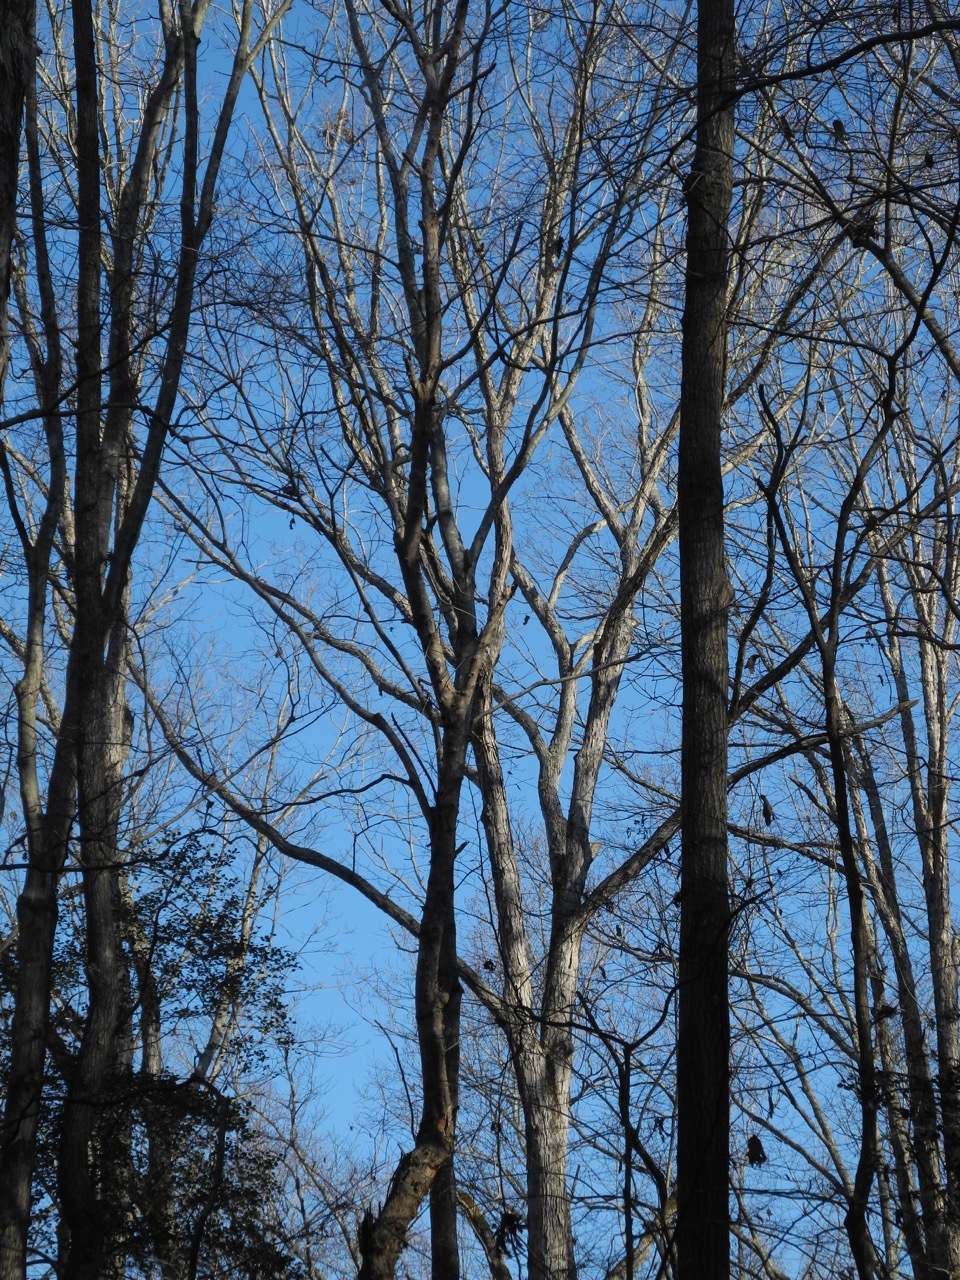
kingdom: Plantae
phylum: Tracheophyta
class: Magnoliopsida
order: Fagales
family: Fagaceae
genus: Quercus
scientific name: Quercus alba
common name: White oak
